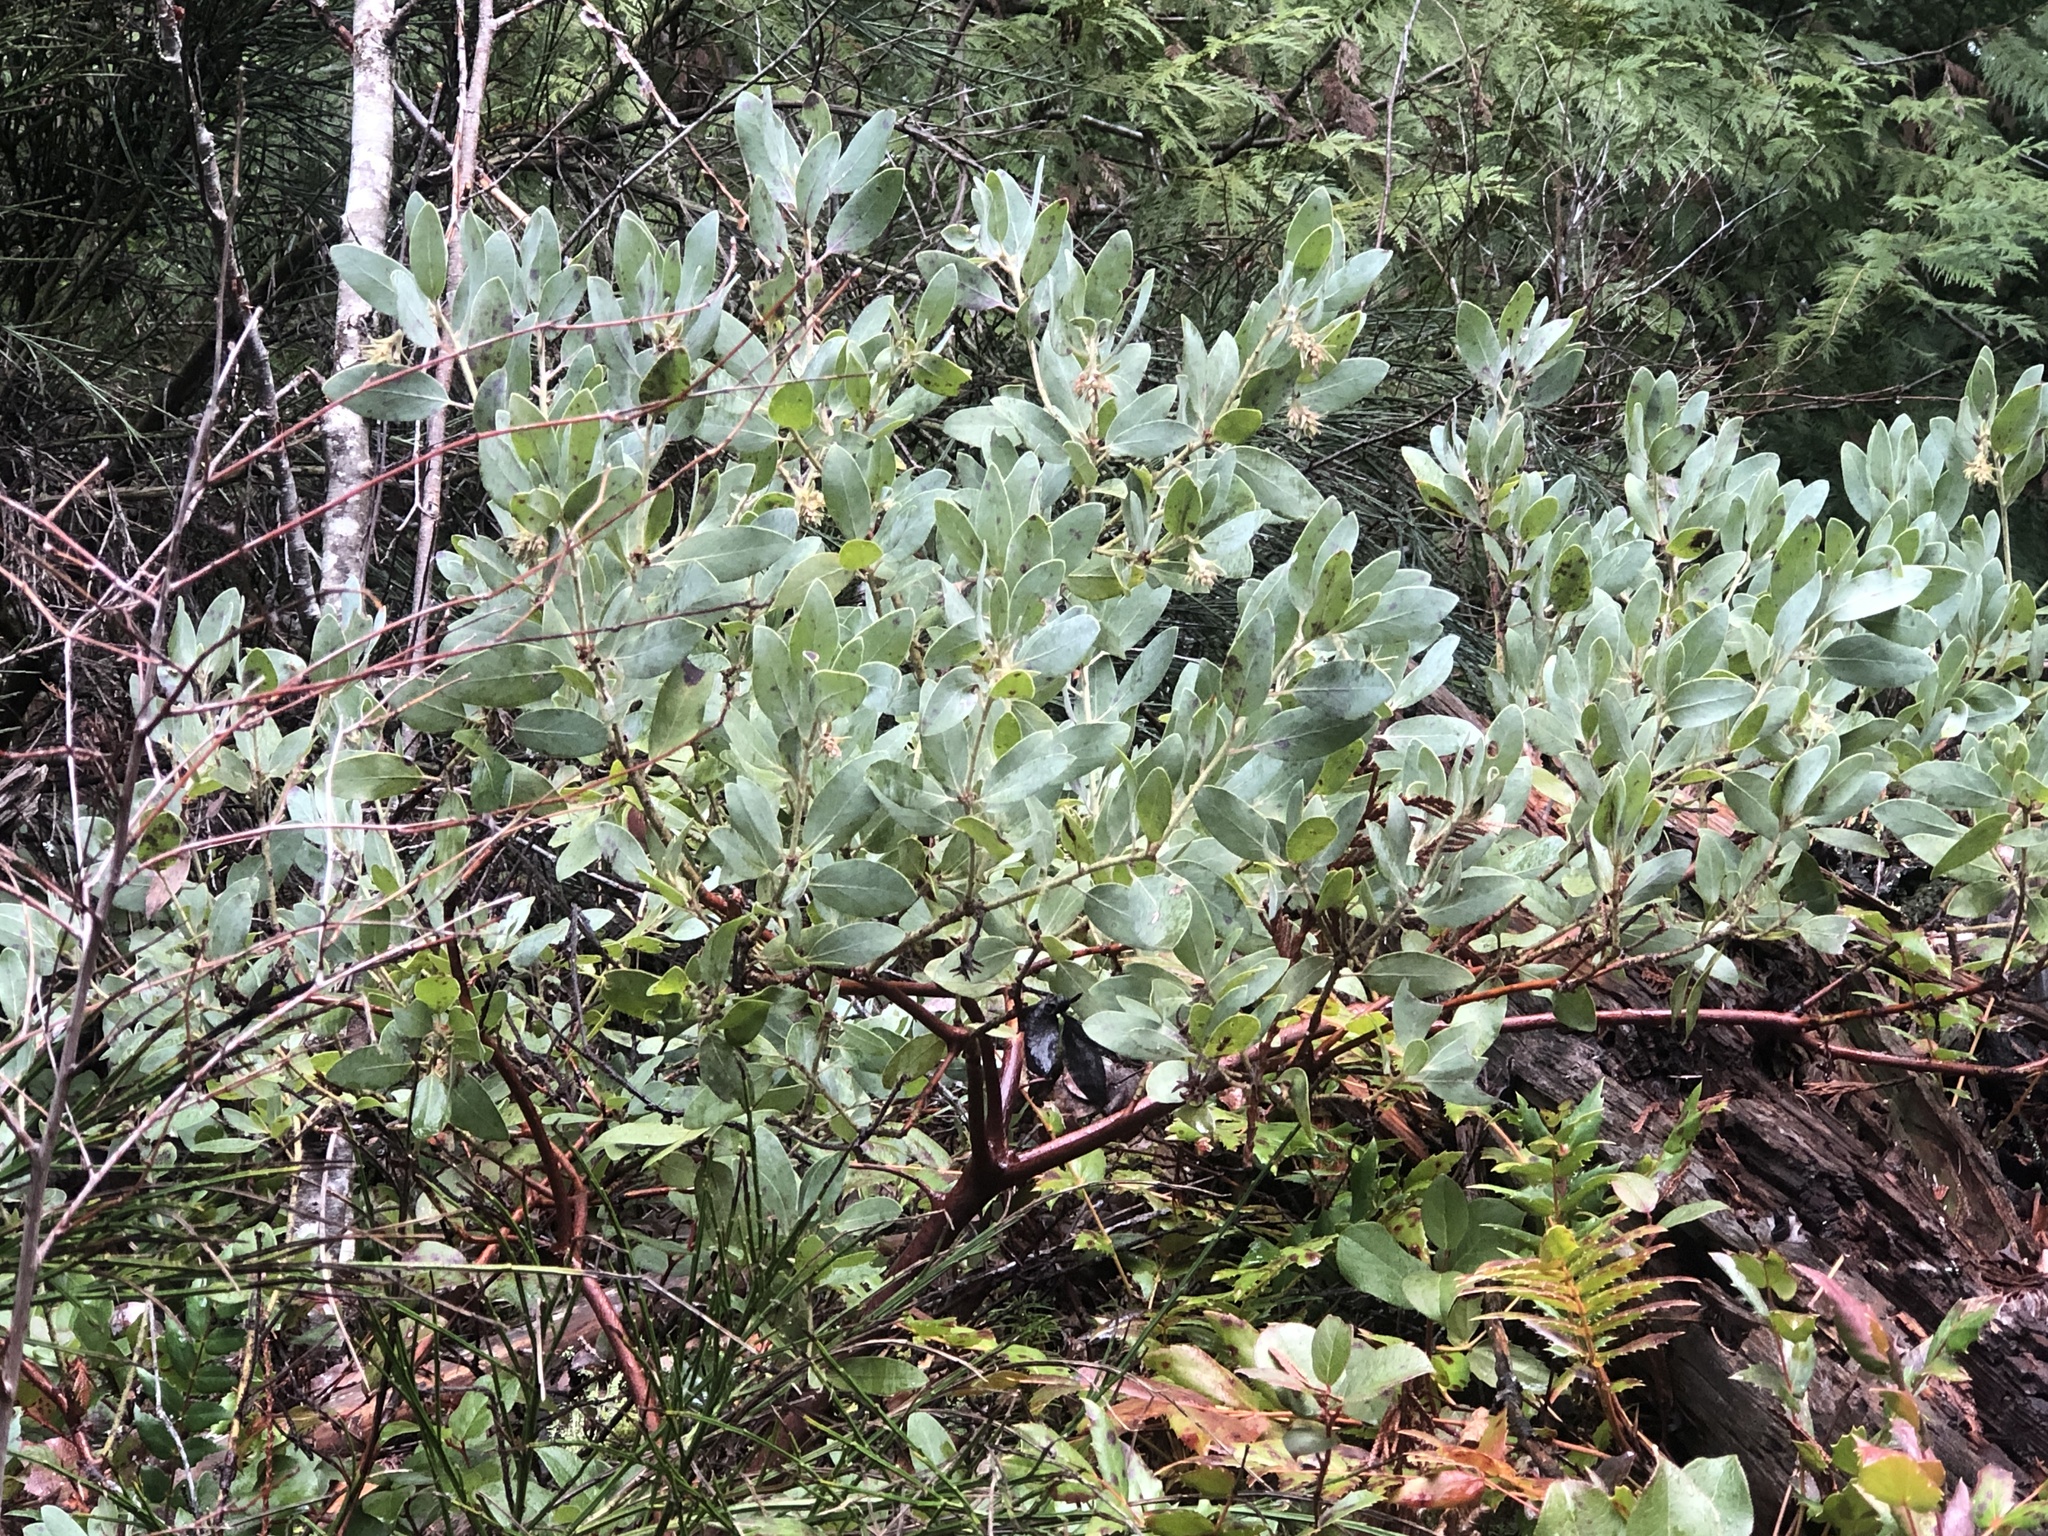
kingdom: Plantae
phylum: Tracheophyta
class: Magnoliopsida
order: Ericales
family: Ericaceae
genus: Arctostaphylos
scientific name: Arctostaphylos columbiana
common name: Bristly bearberry
